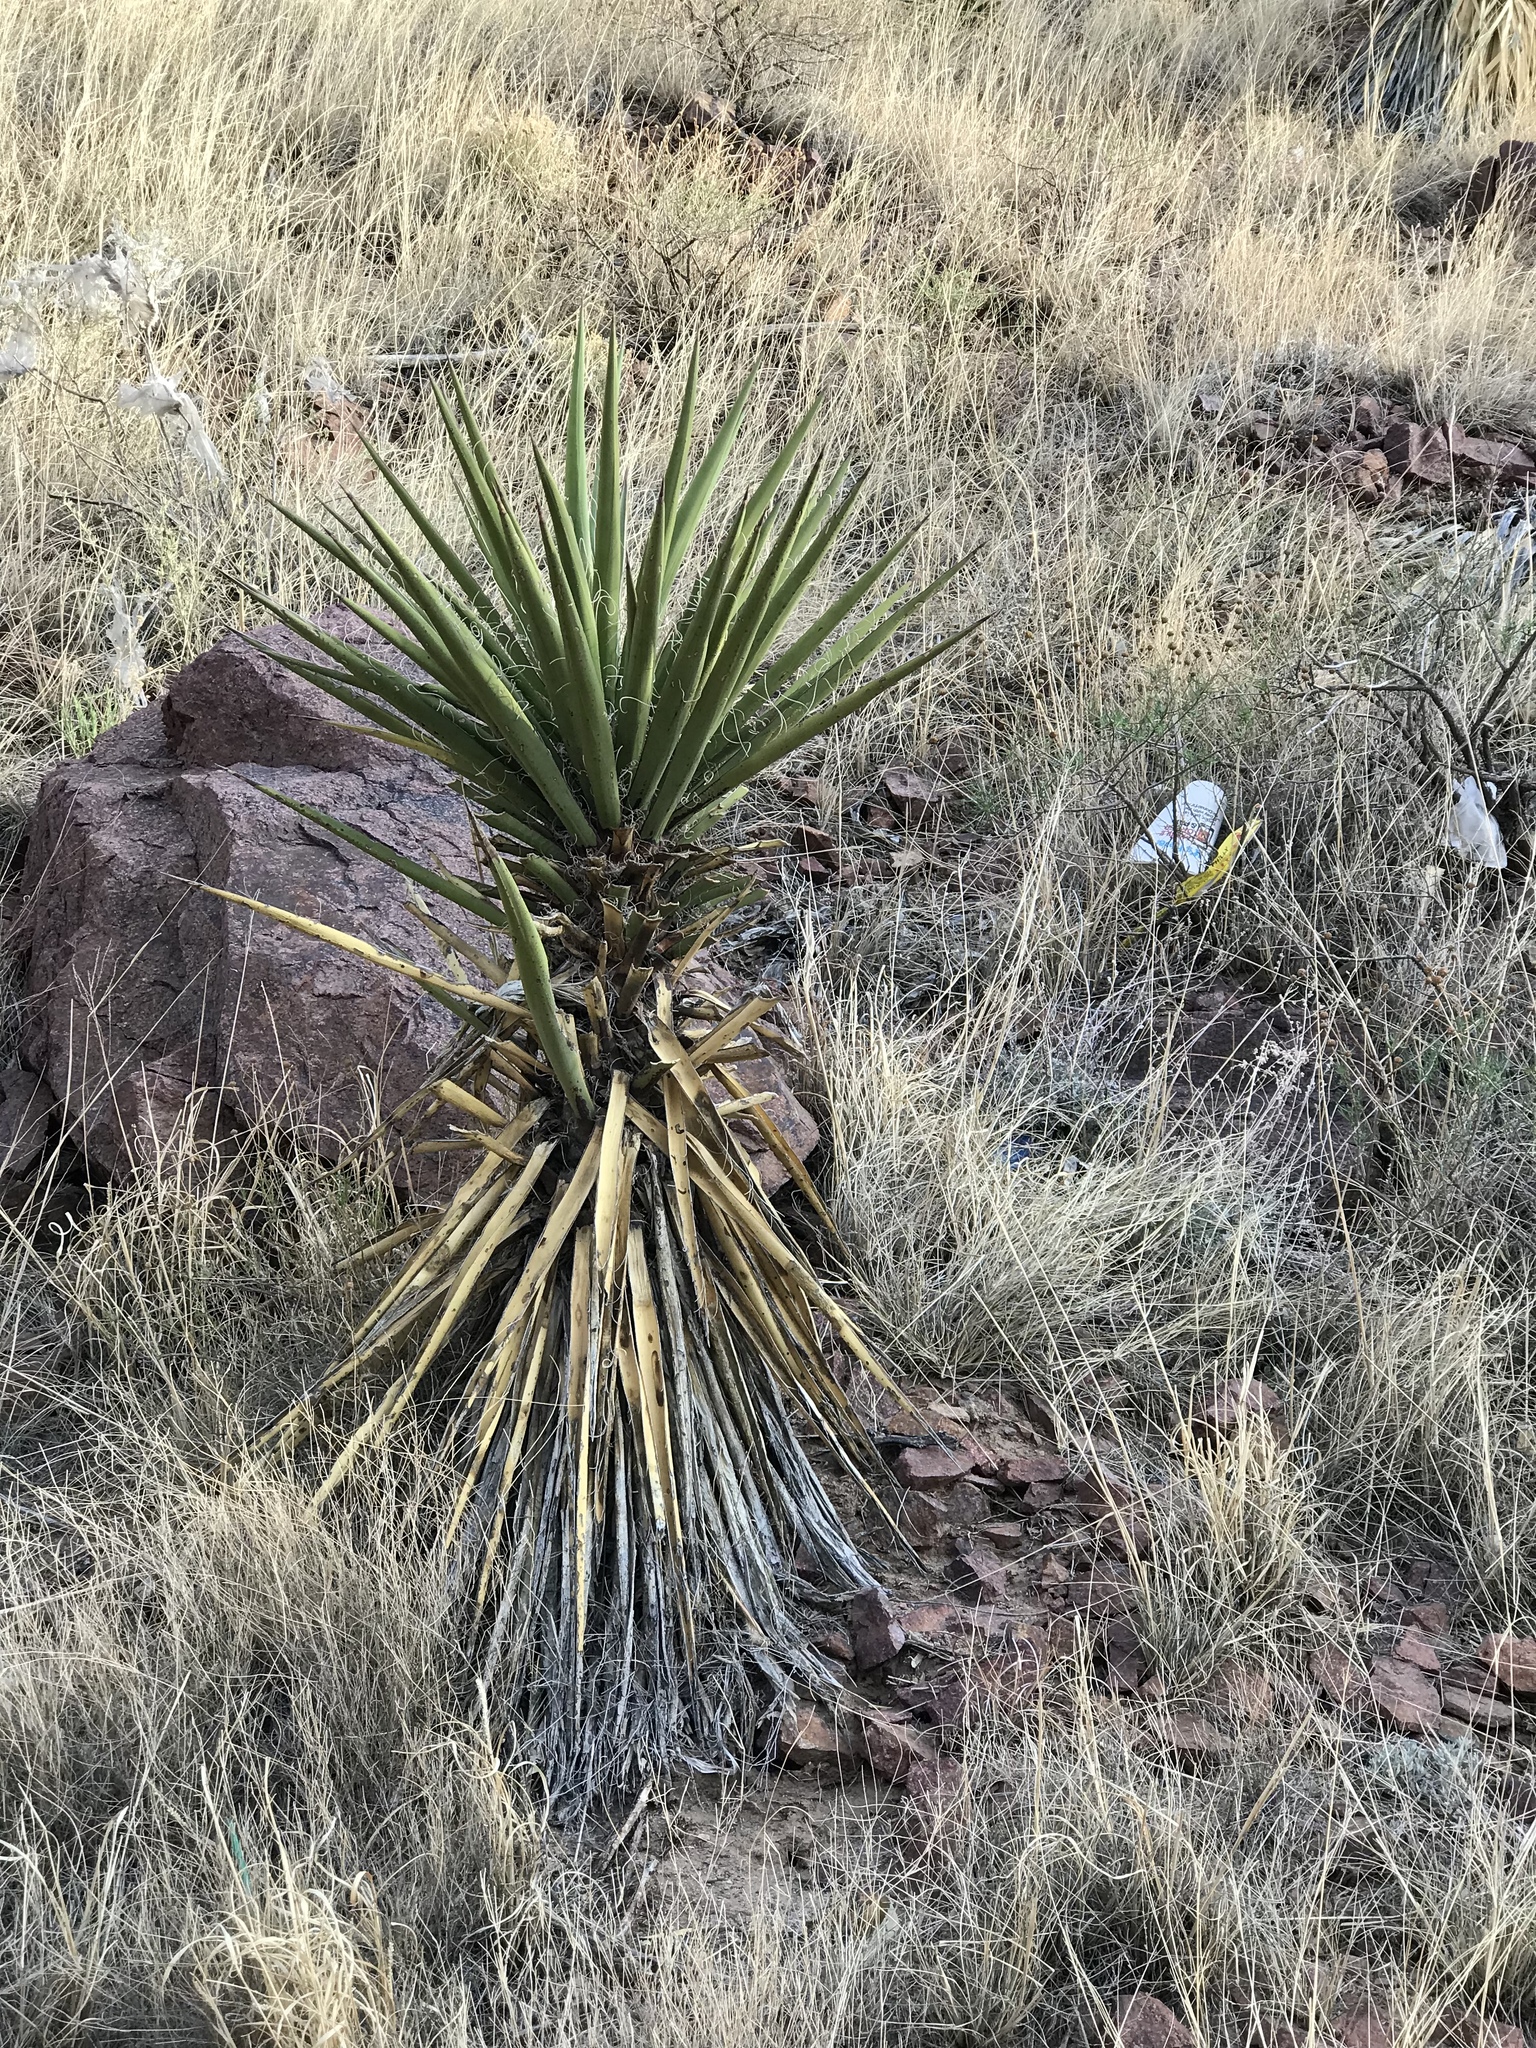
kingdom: Plantae
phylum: Tracheophyta
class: Liliopsida
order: Asparagales
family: Asparagaceae
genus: Yucca
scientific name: Yucca treculiana
